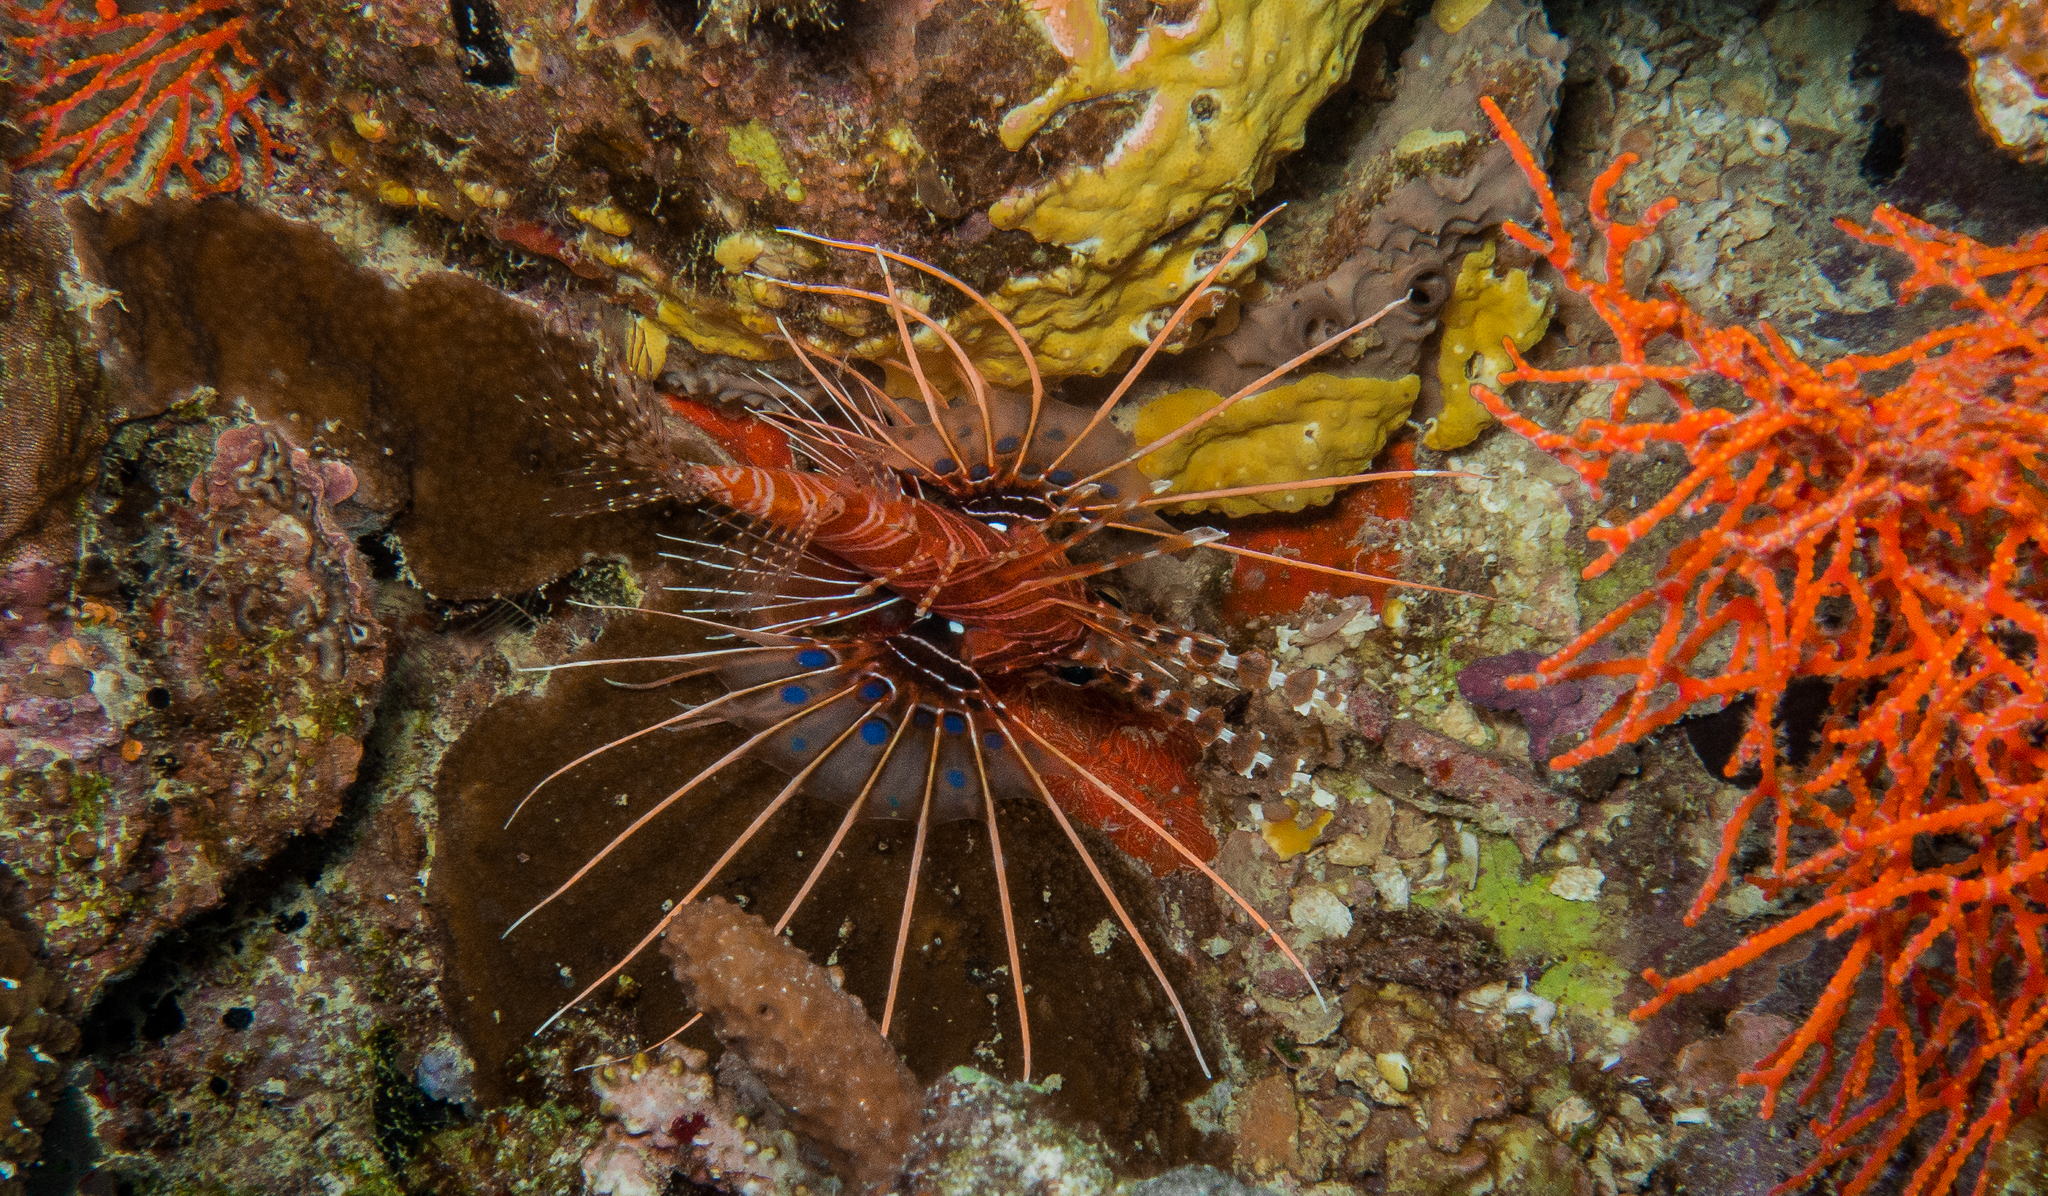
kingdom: Animalia
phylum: Chordata
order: Scorpaeniformes
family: Scorpaenidae
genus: Pterois
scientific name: Pterois antennata
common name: Spotfin lionfish
